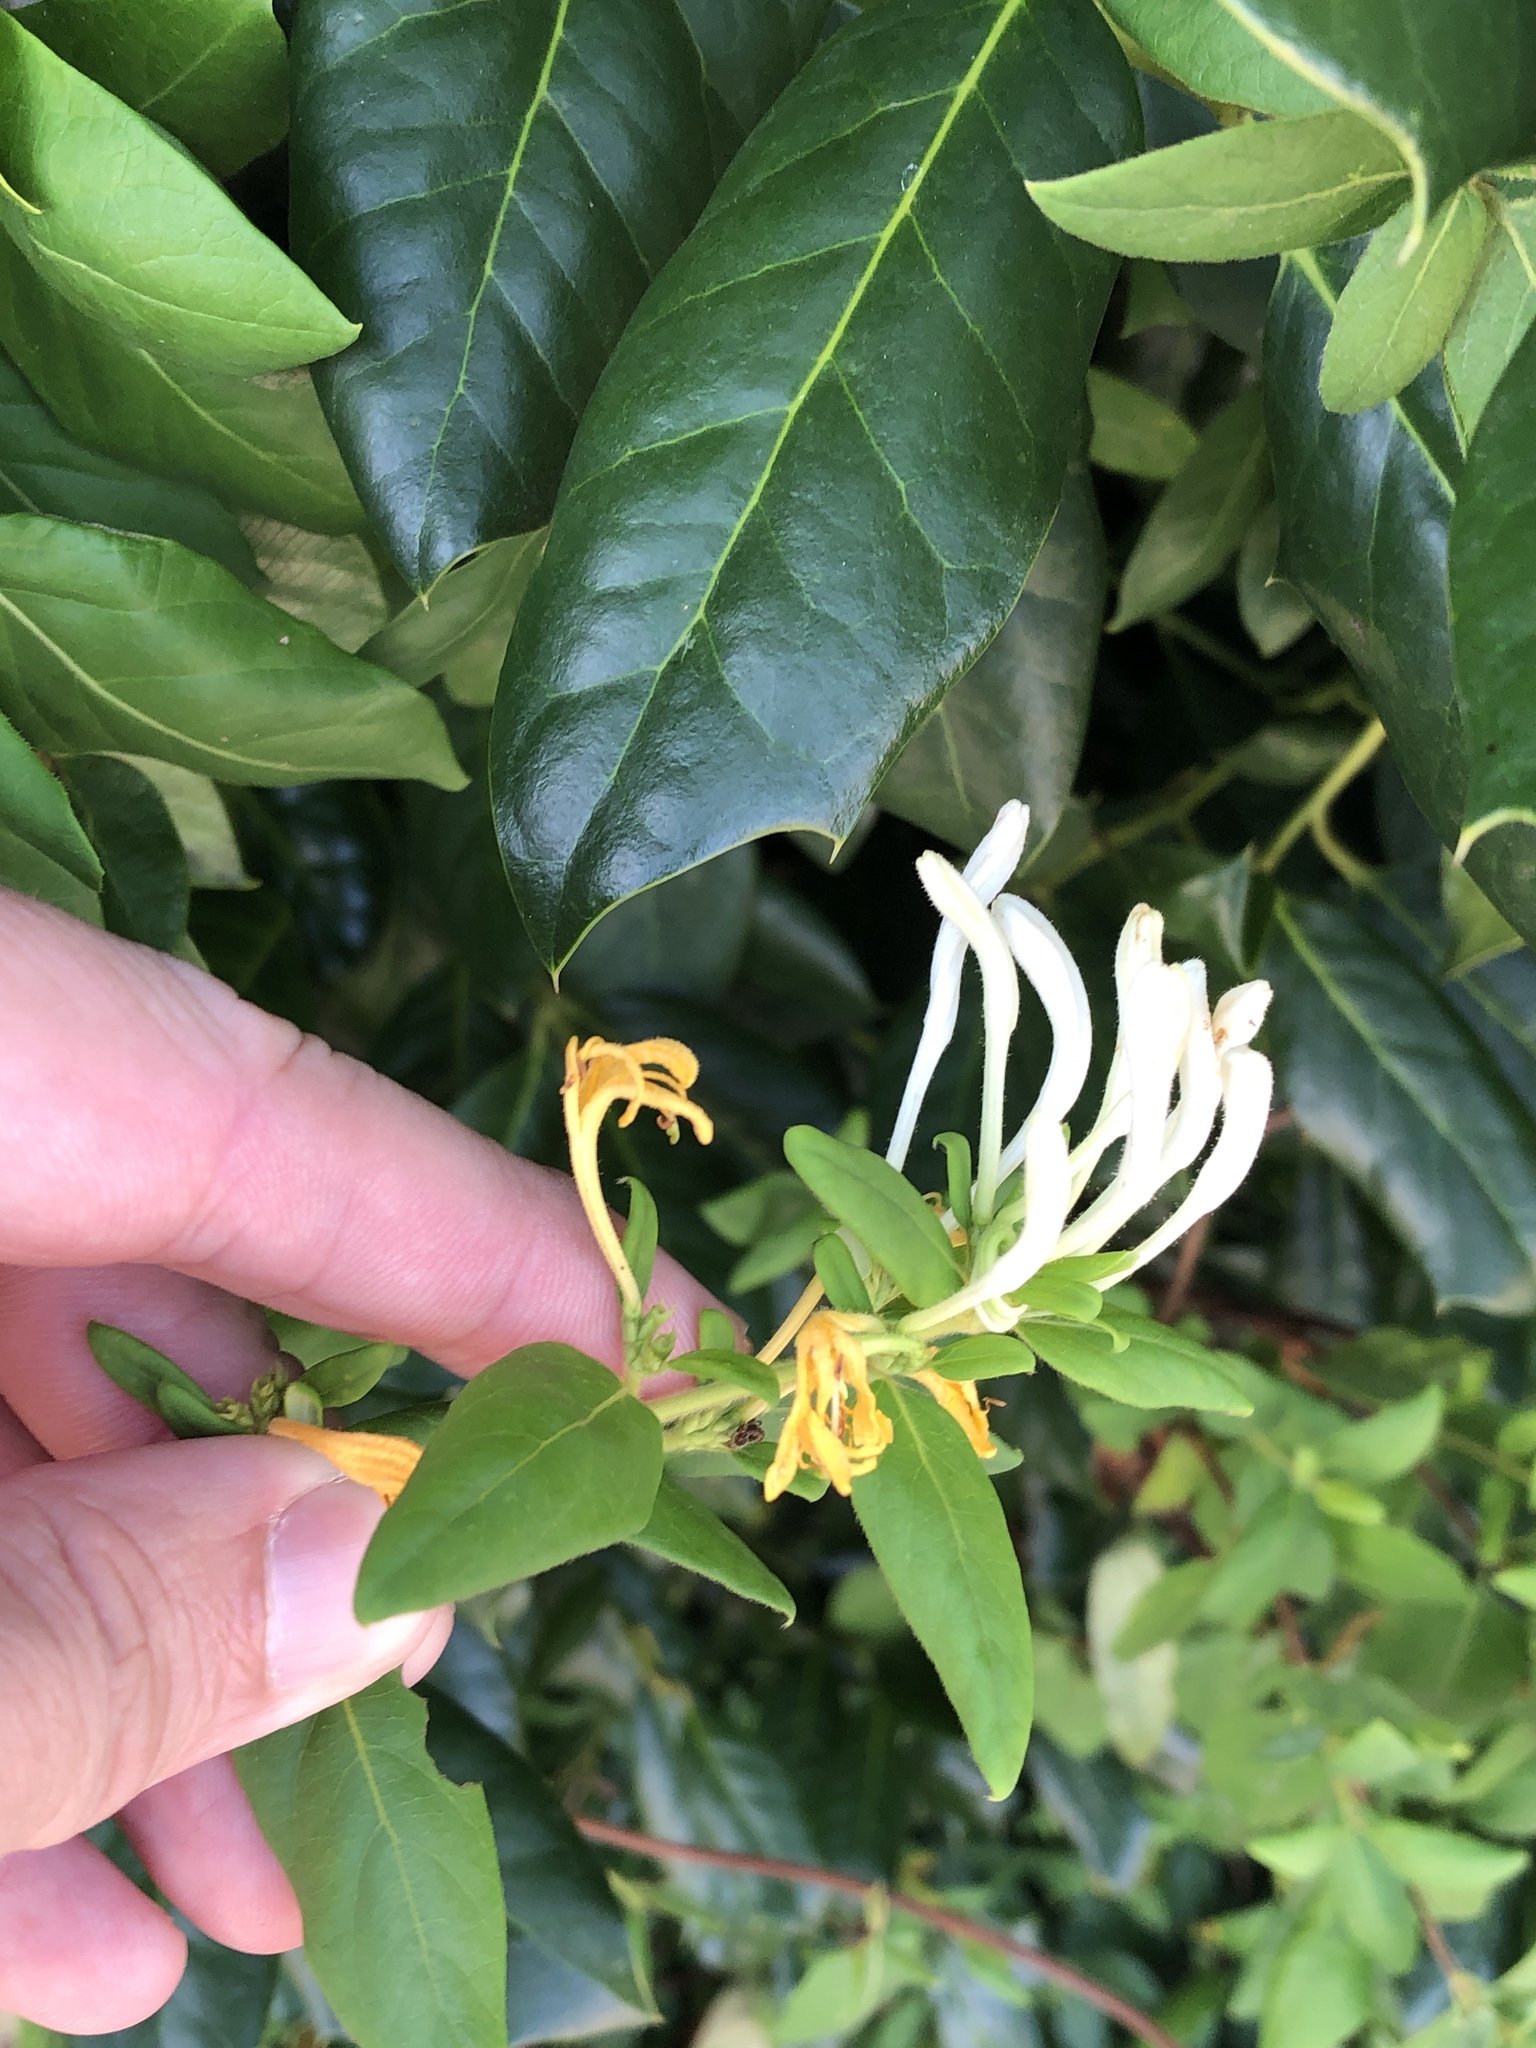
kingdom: Plantae
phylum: Tracheophyta
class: Magnoliopsida
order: Dipsacales
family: Caprifoliaceae
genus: Lonicera
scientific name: Lonicera japonica
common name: Japanese honeysuckle
